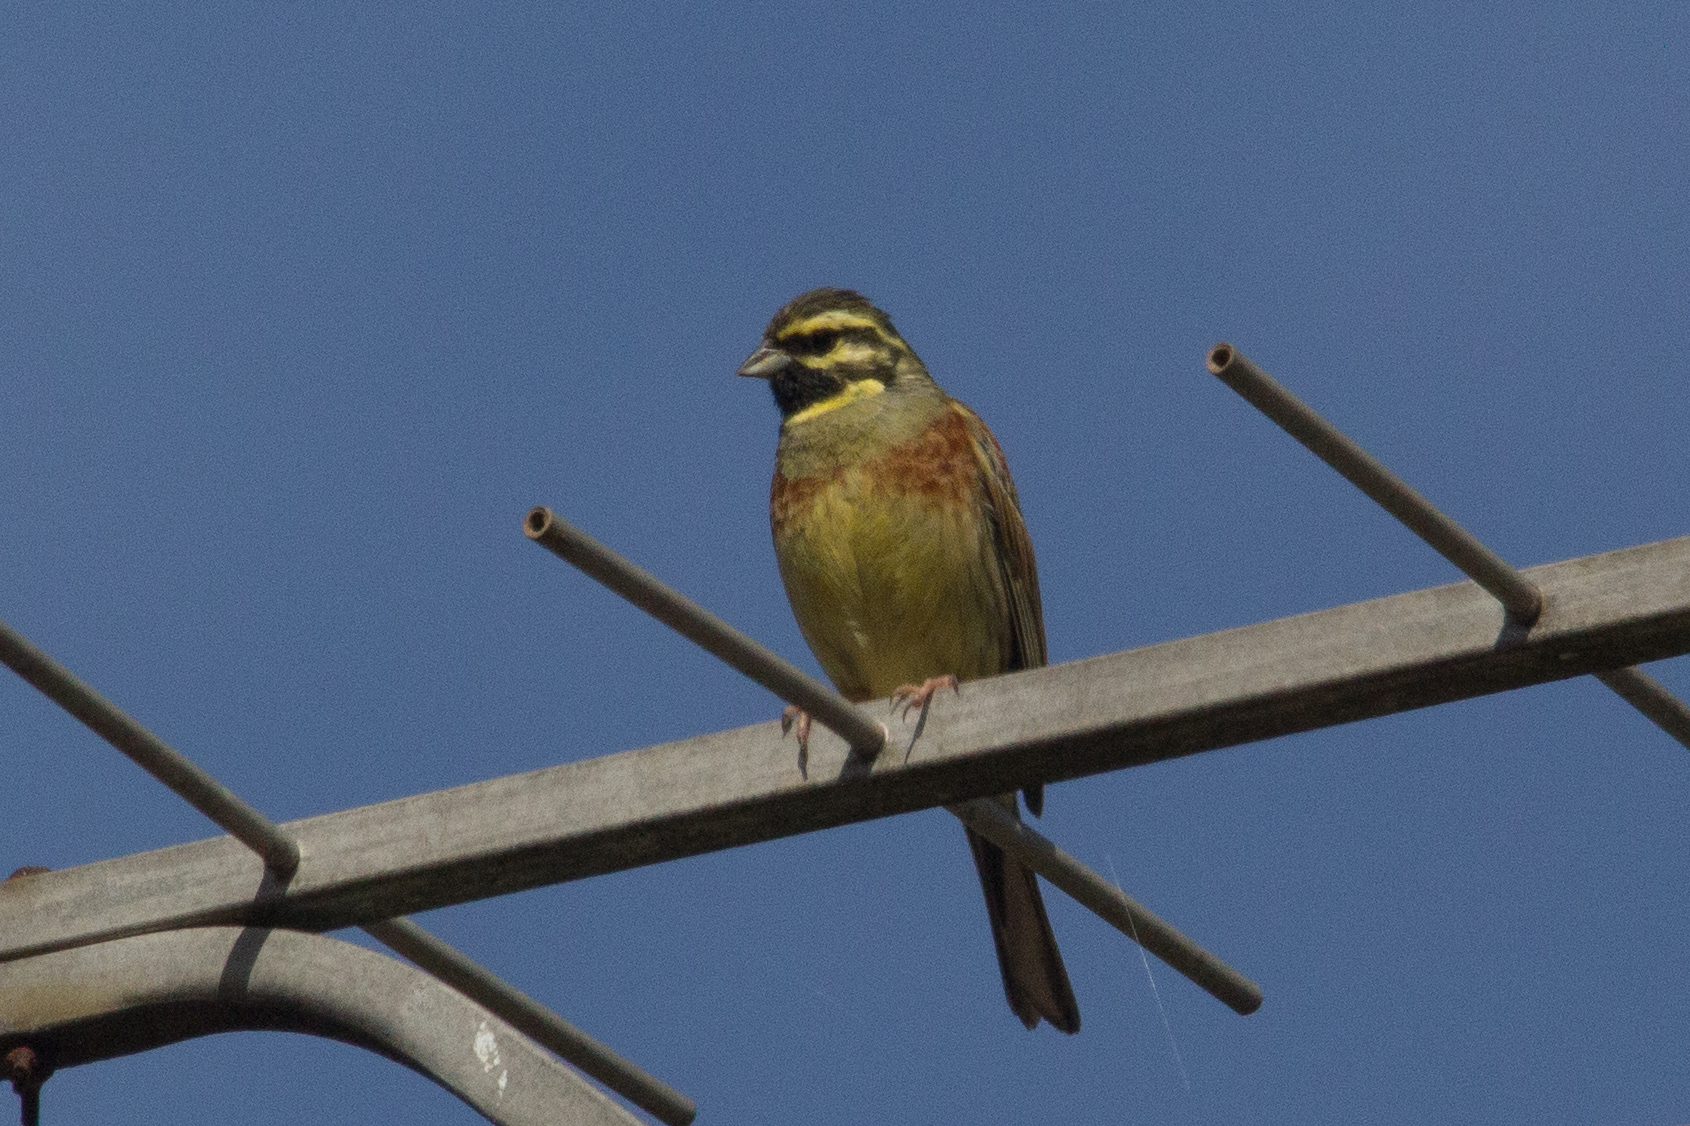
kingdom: Animalia
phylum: Chordata
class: Aves
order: Passeriformes
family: Emberizidae
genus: Emberiza
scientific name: Emberiza cirlus
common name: Cirl bunting
